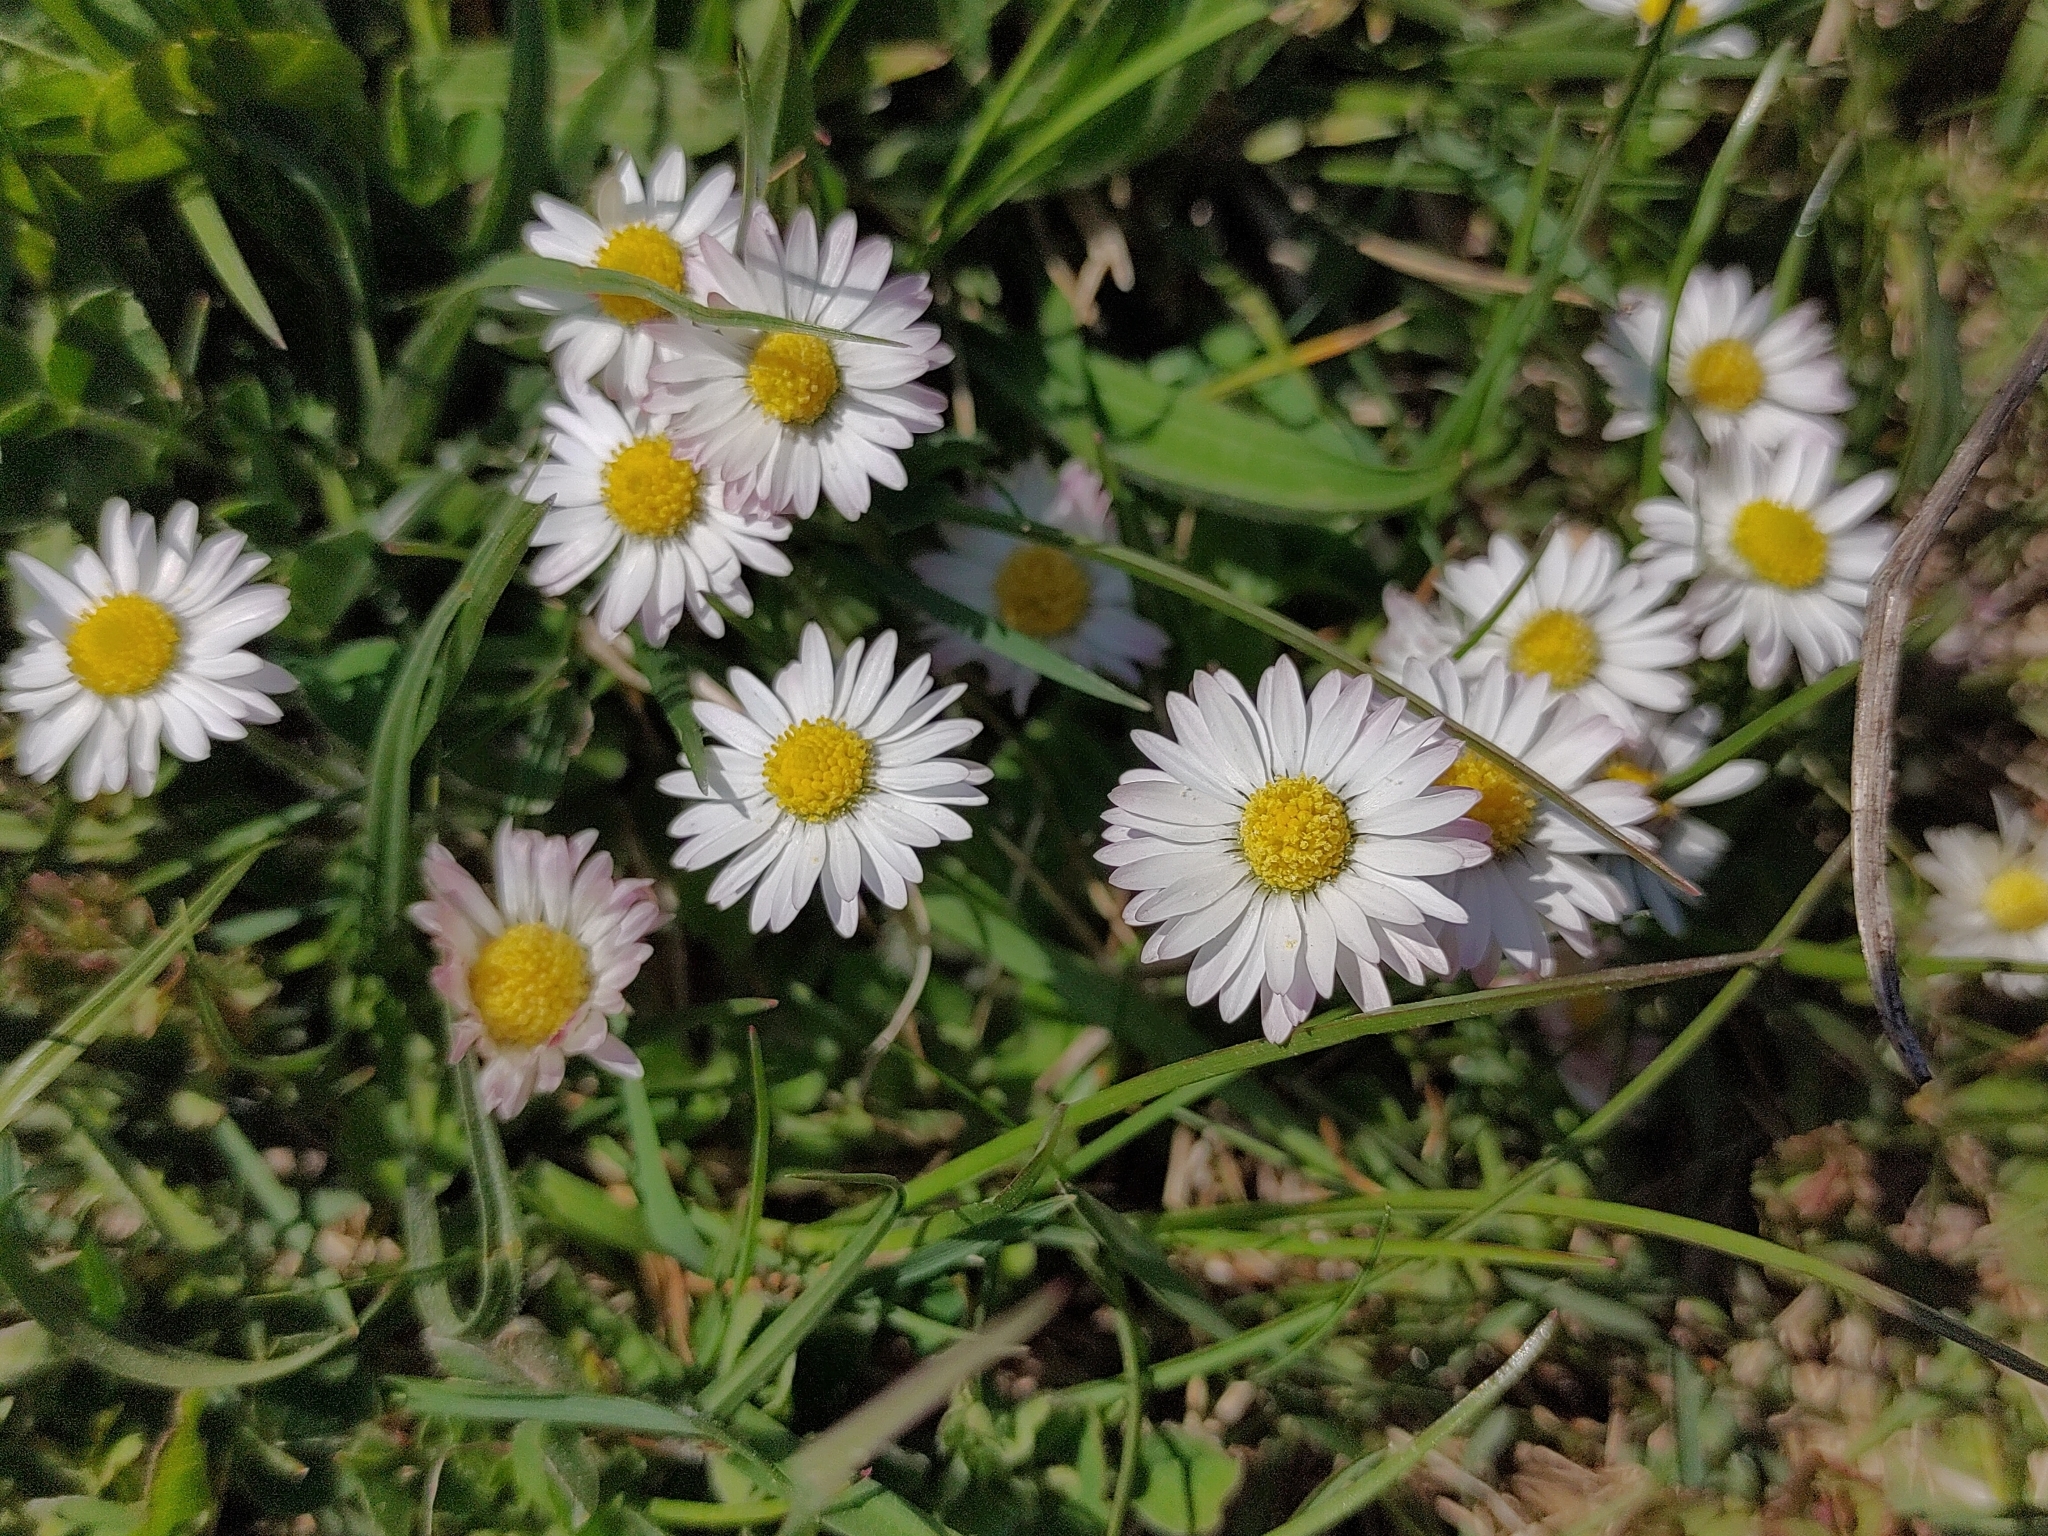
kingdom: Plantae
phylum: Tracheophyta
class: Magnoliopsida
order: Asterales
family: Asteraceae
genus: Bellis
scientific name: Bellis perennis
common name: Lawndaisy
